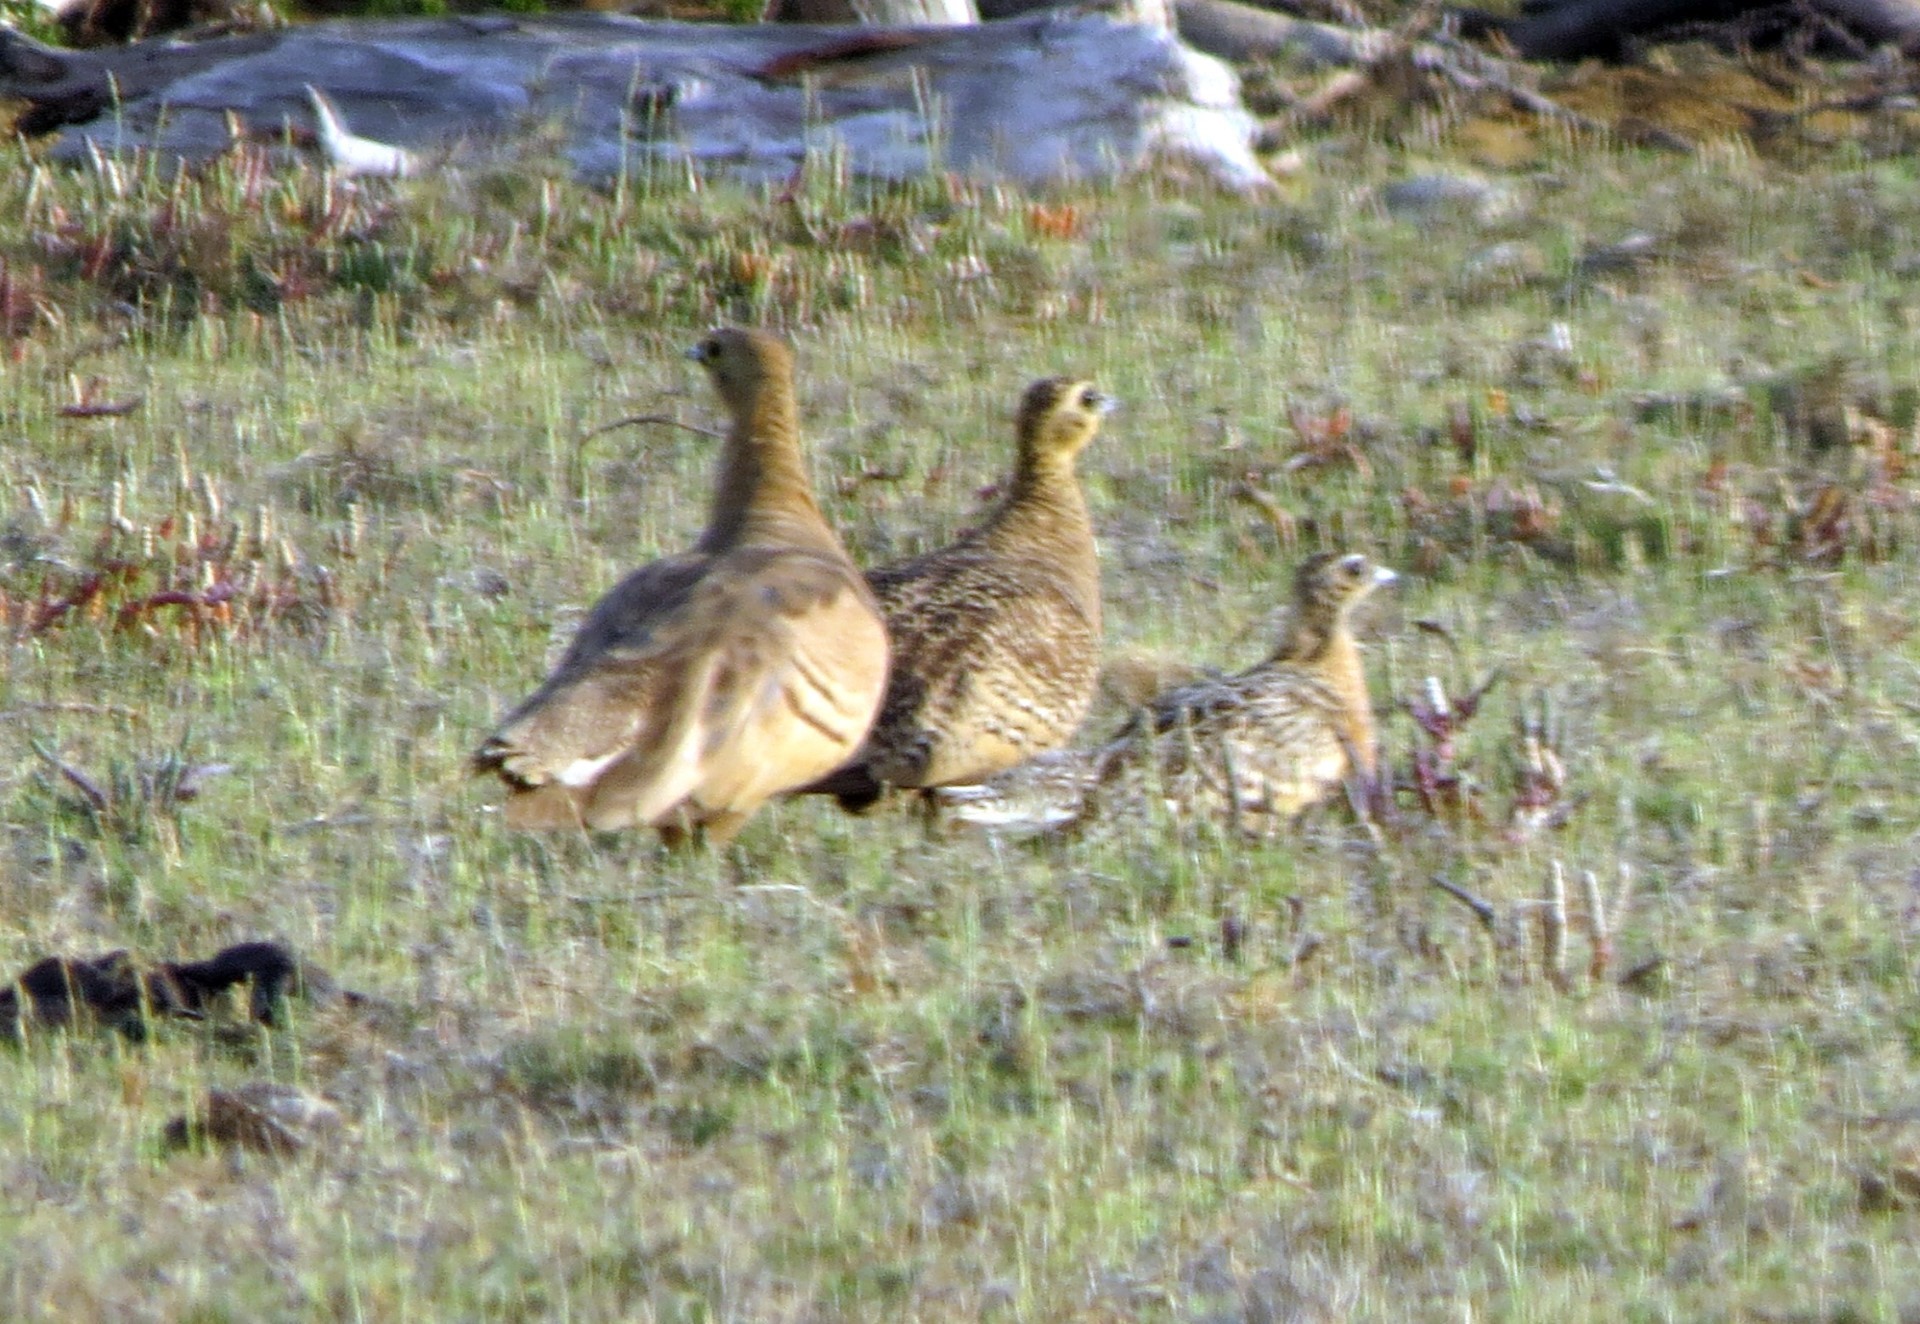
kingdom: Animalia
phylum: Chordata
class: Aves
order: Pteroclidiformes
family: Pteroclididae
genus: Pterocles
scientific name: Pterocles personatus
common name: Madagascar sandgrouse
